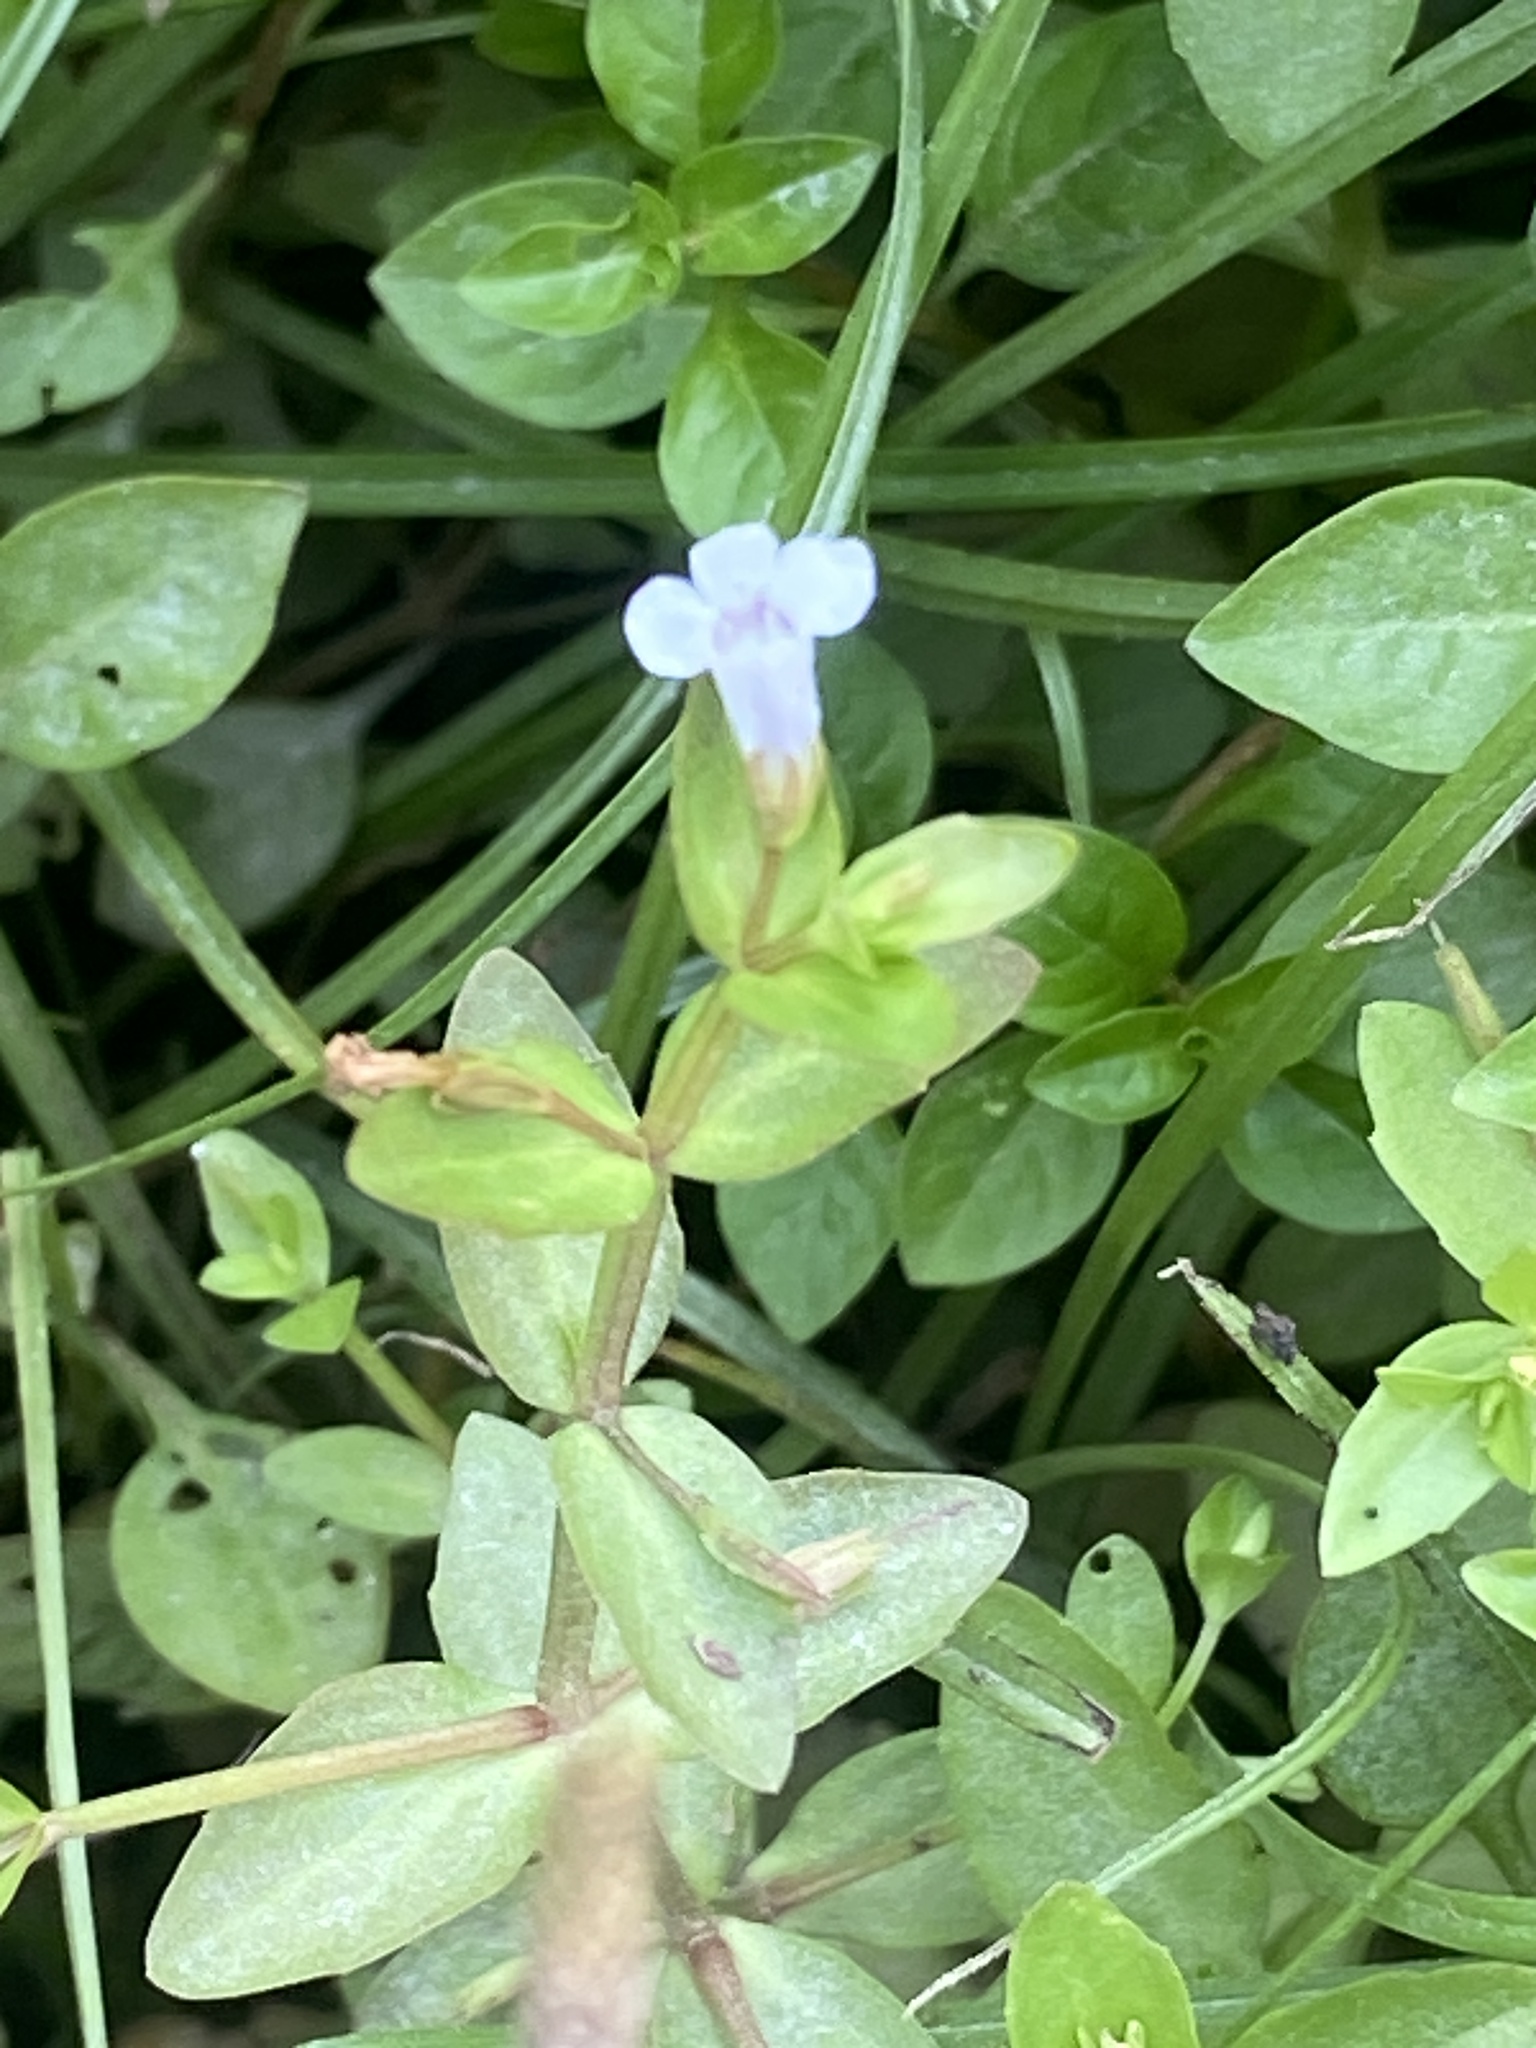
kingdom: Plantae
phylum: Tracheophyta
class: Magnoliopsida
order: Lamiales
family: Linderniaceae
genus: Lindernia
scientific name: Lindernia dubia
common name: Annual false pimpernel
